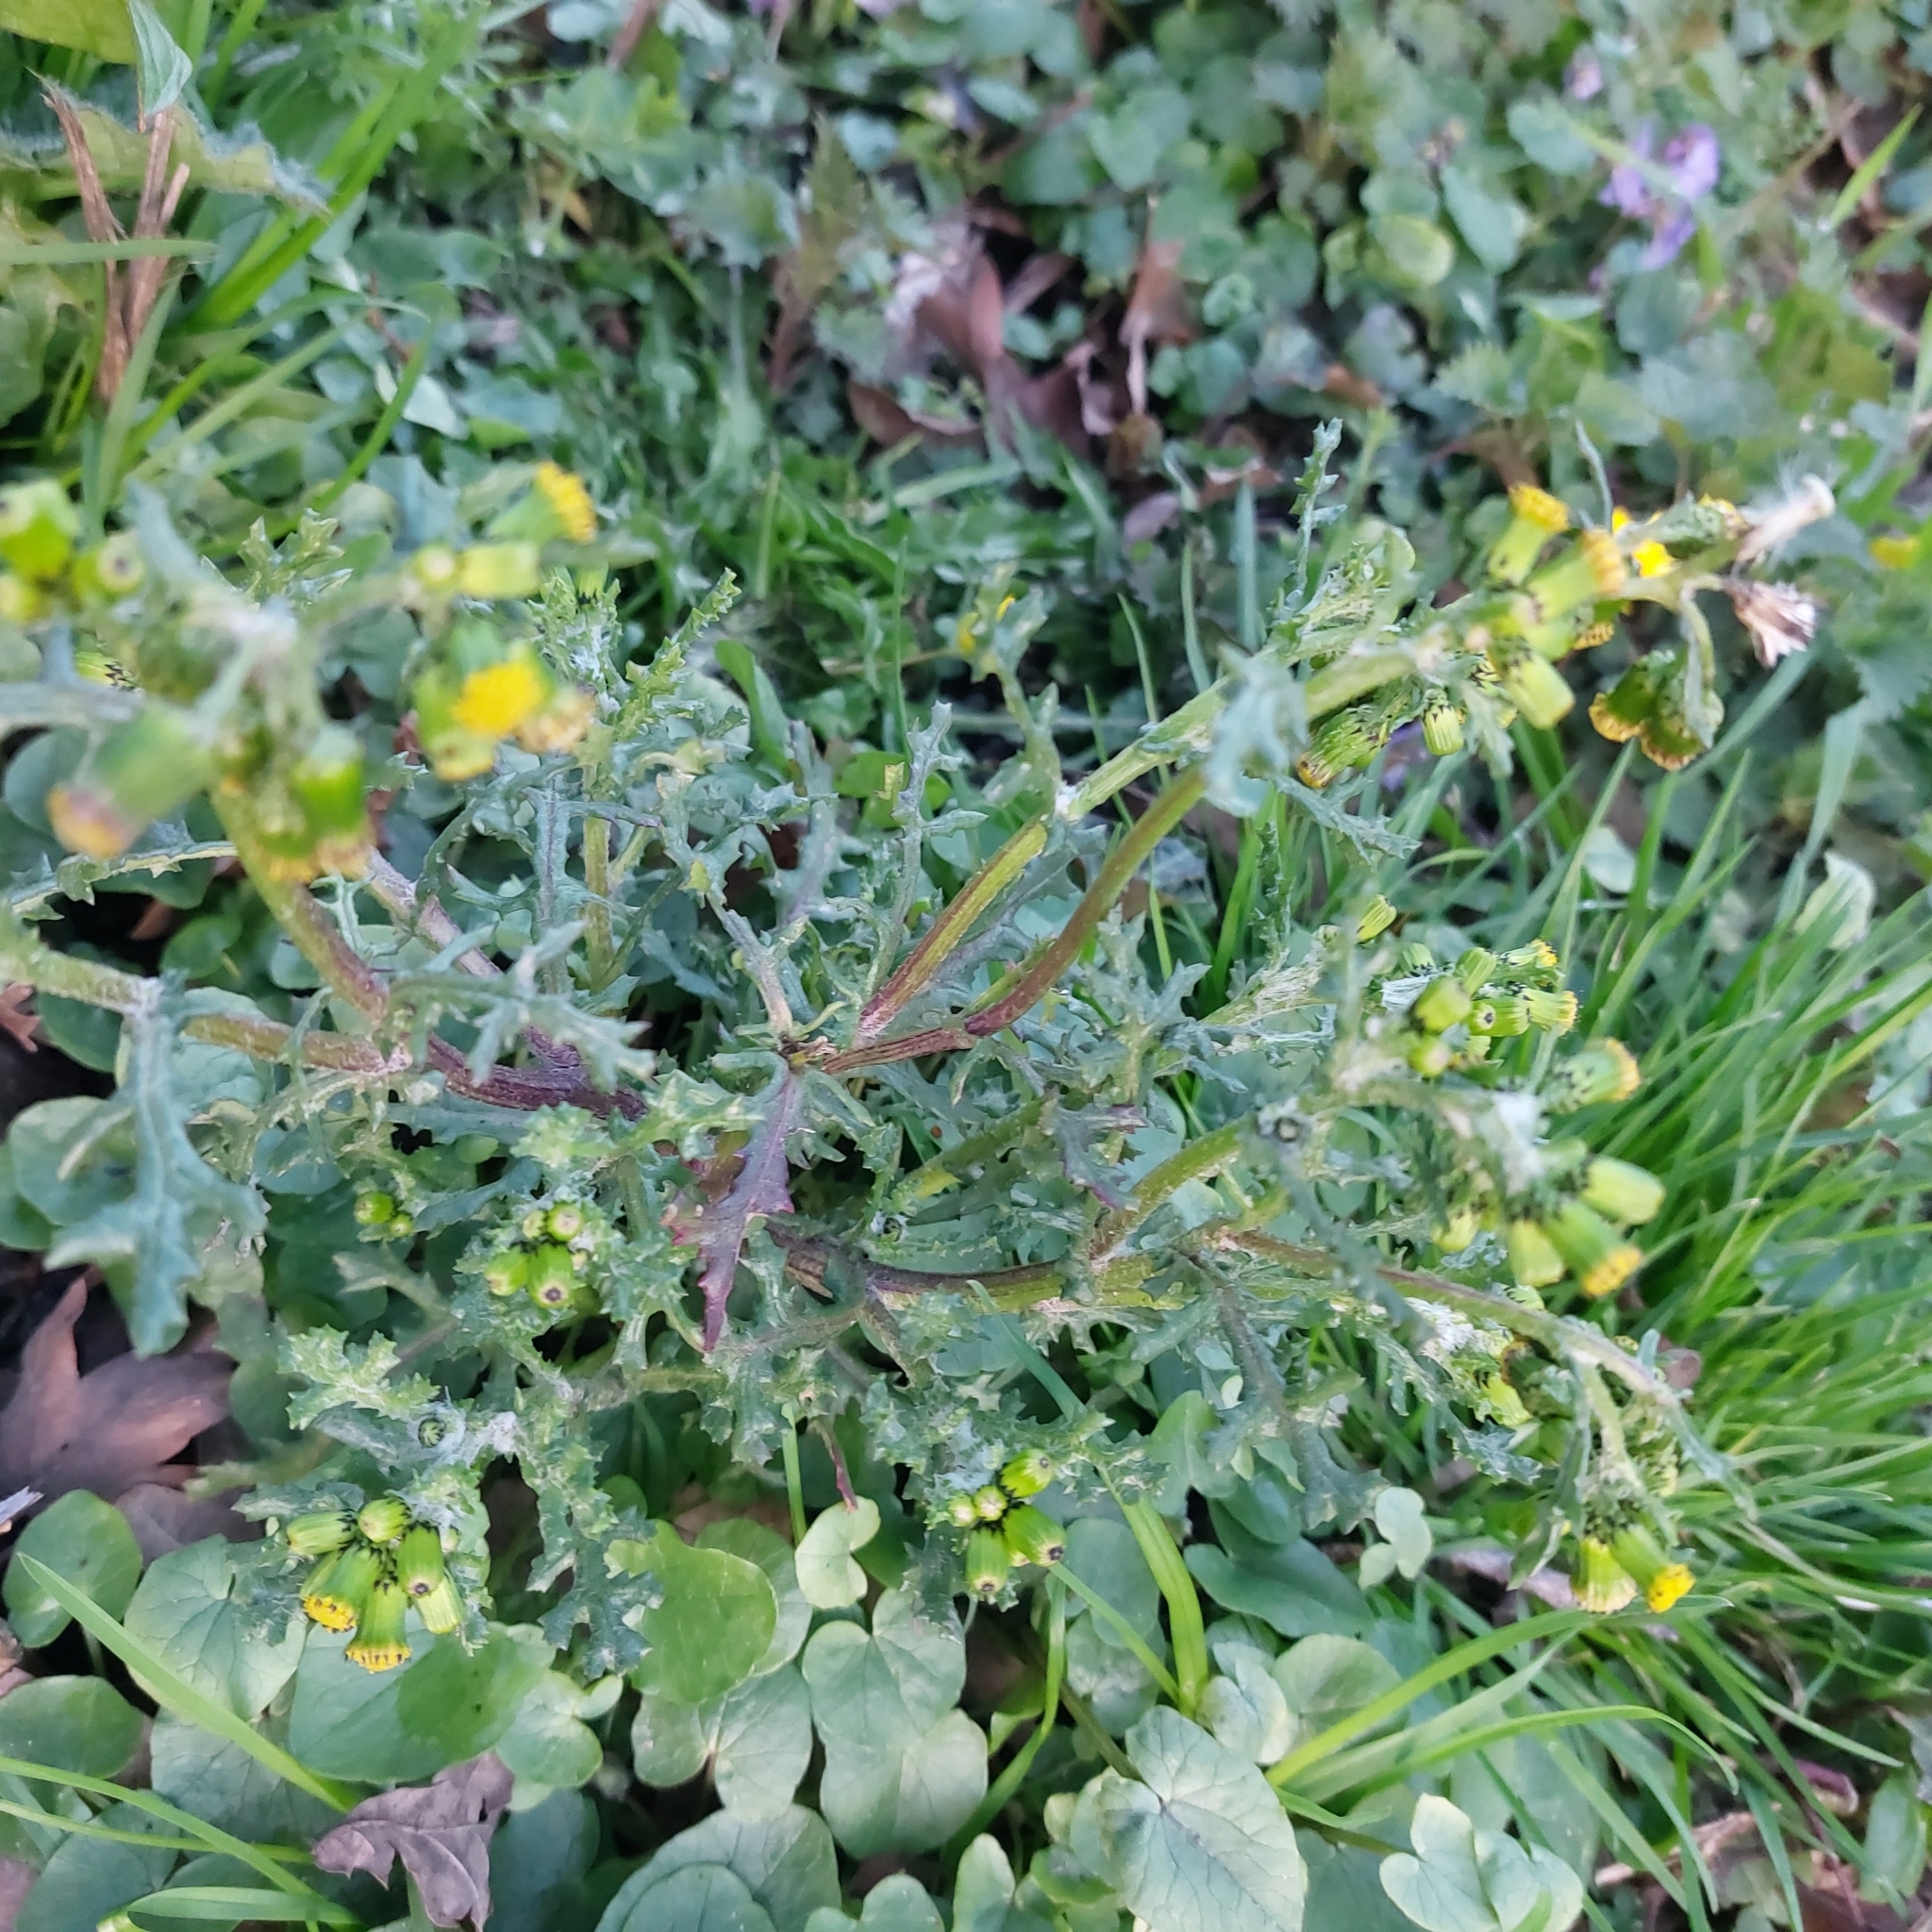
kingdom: Plantae
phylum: Tracheophyta
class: Magnoliopsida
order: Asterales
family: Asteraceae
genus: Senecio
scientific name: Senecio vulgaris
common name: Old-man-in-the-spring
